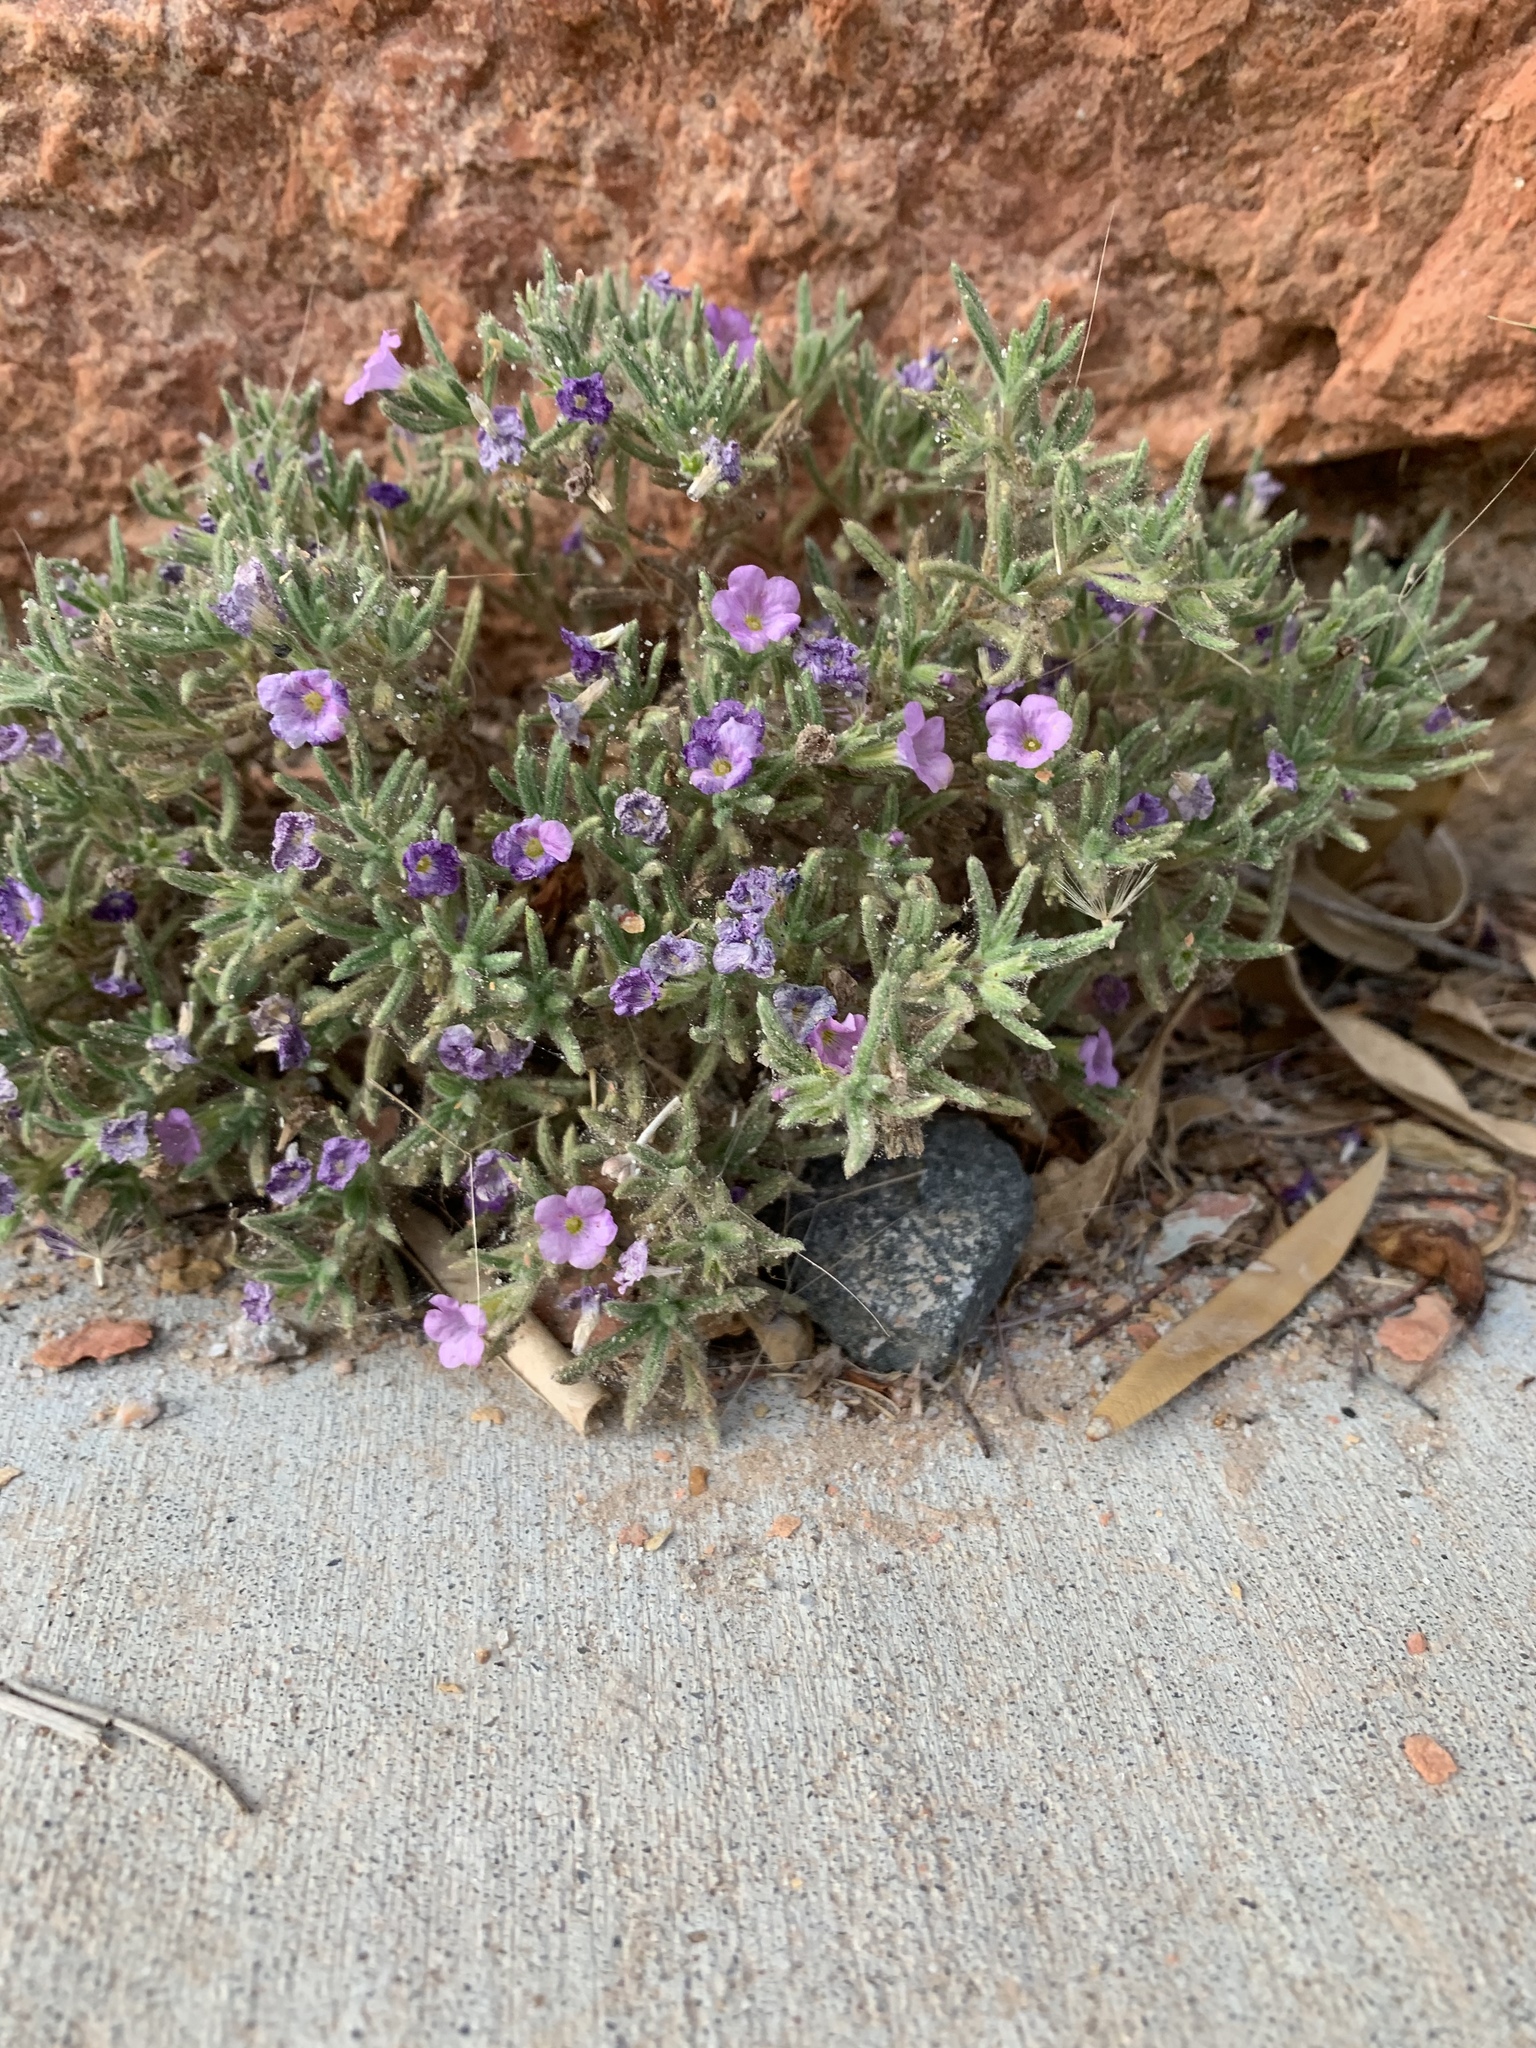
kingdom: Plantae
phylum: Tracheophyta
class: Magnoliopsida
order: Boraginales
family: Namaceae
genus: Nama
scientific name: Nama hispida
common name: Bristly nama
